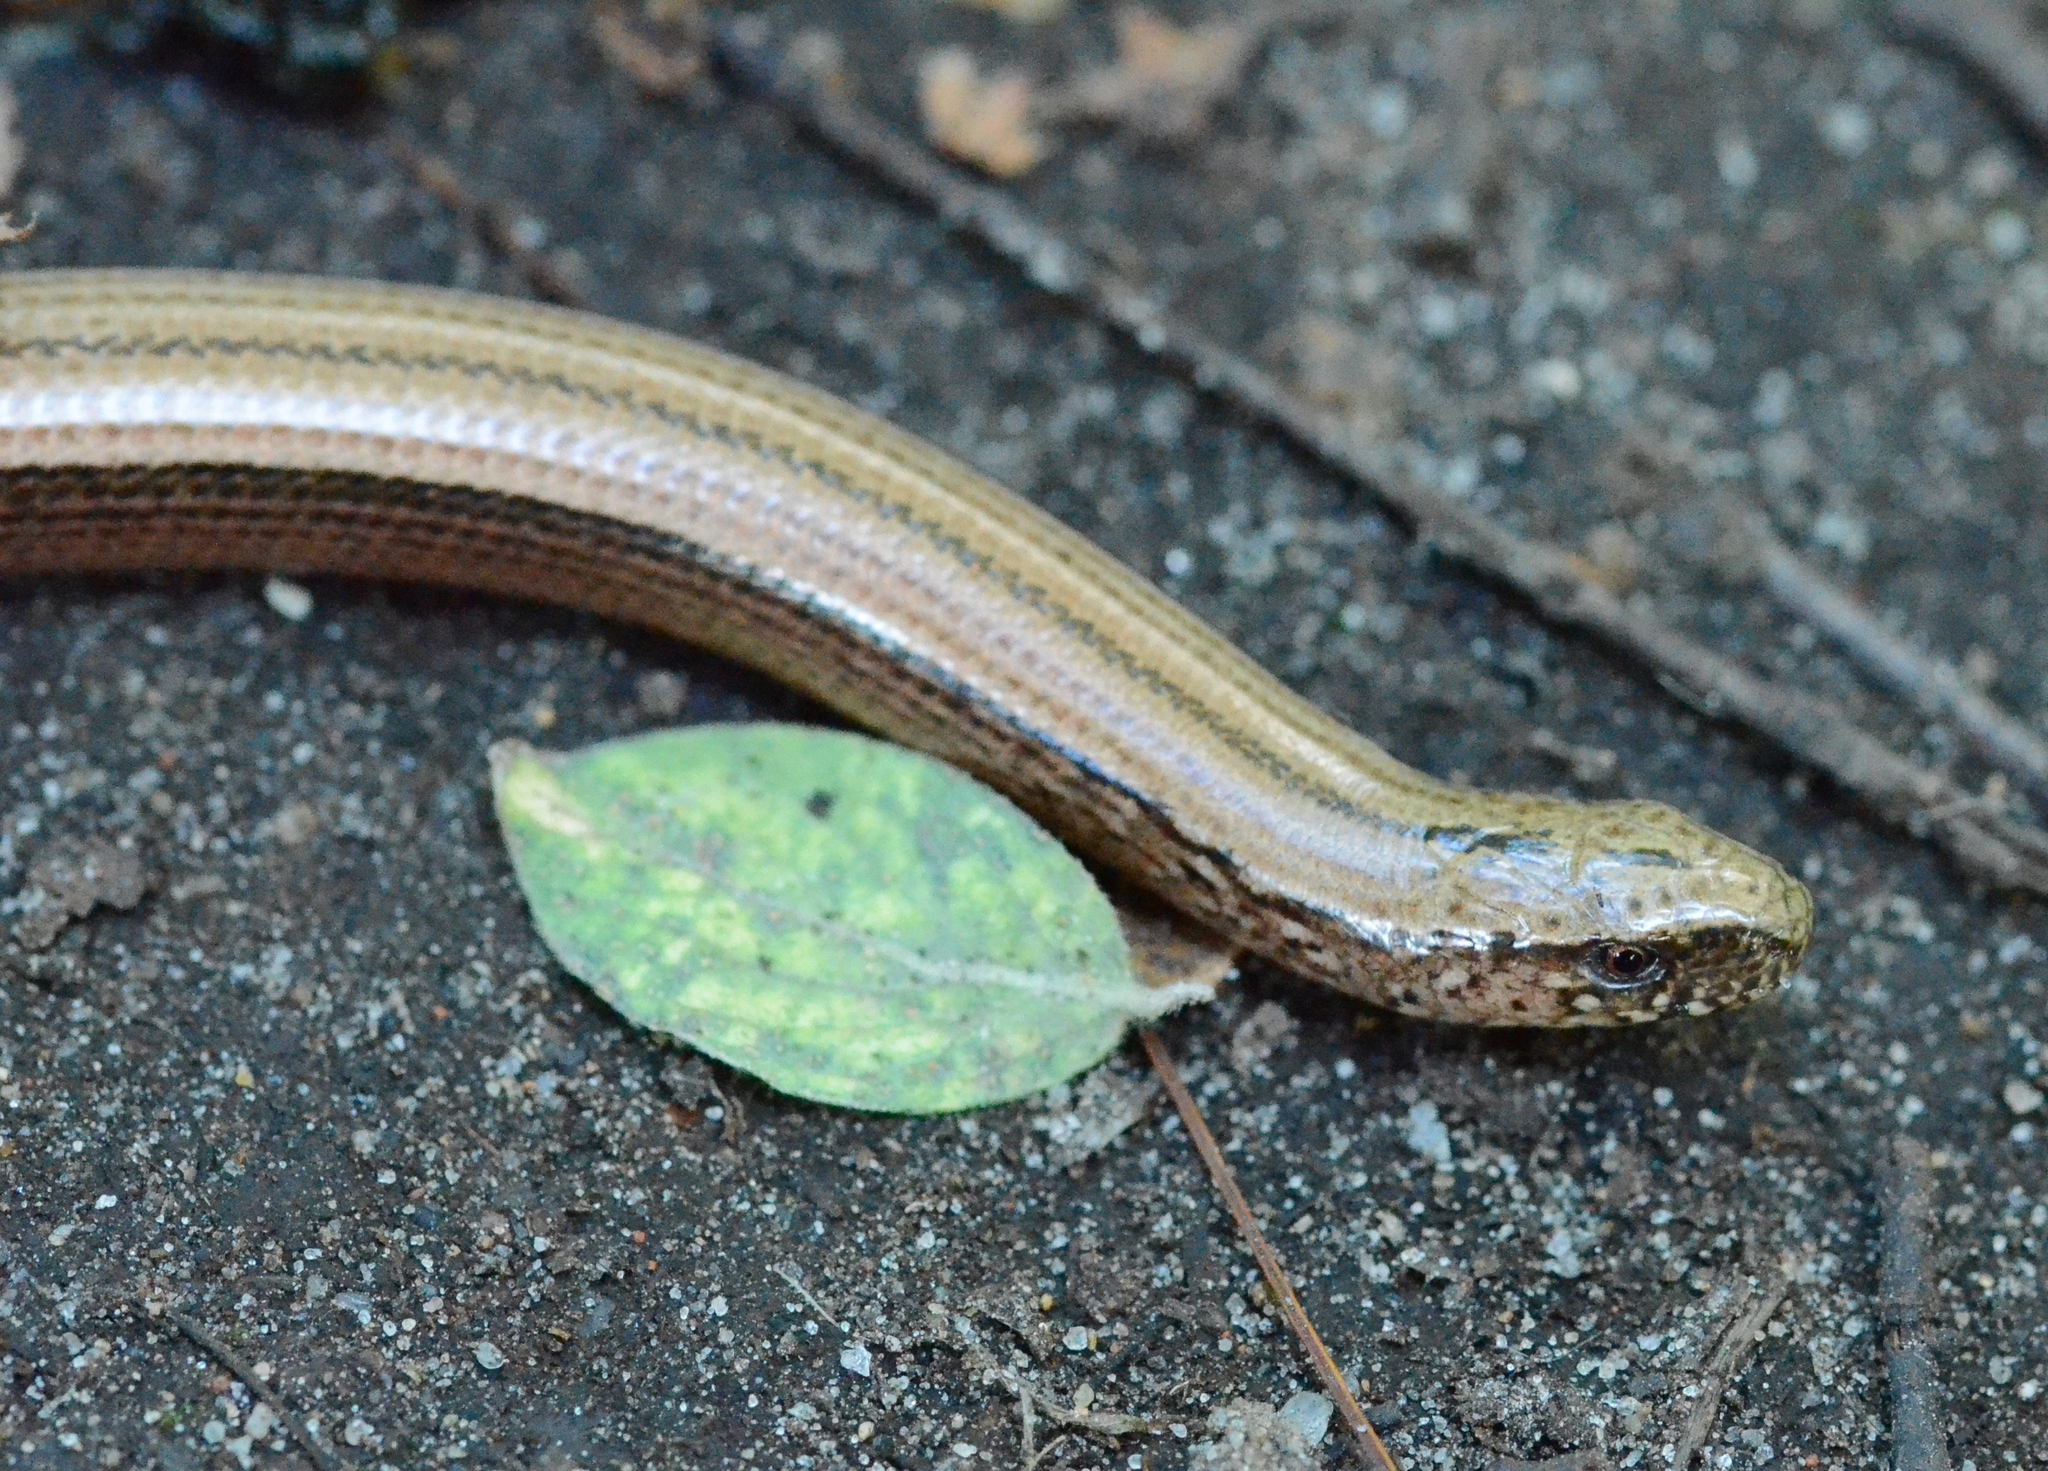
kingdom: Animalia
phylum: Chordata
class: Squamata
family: Anguidae
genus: Anguis
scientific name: Anguis fragilis
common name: Slow worm
